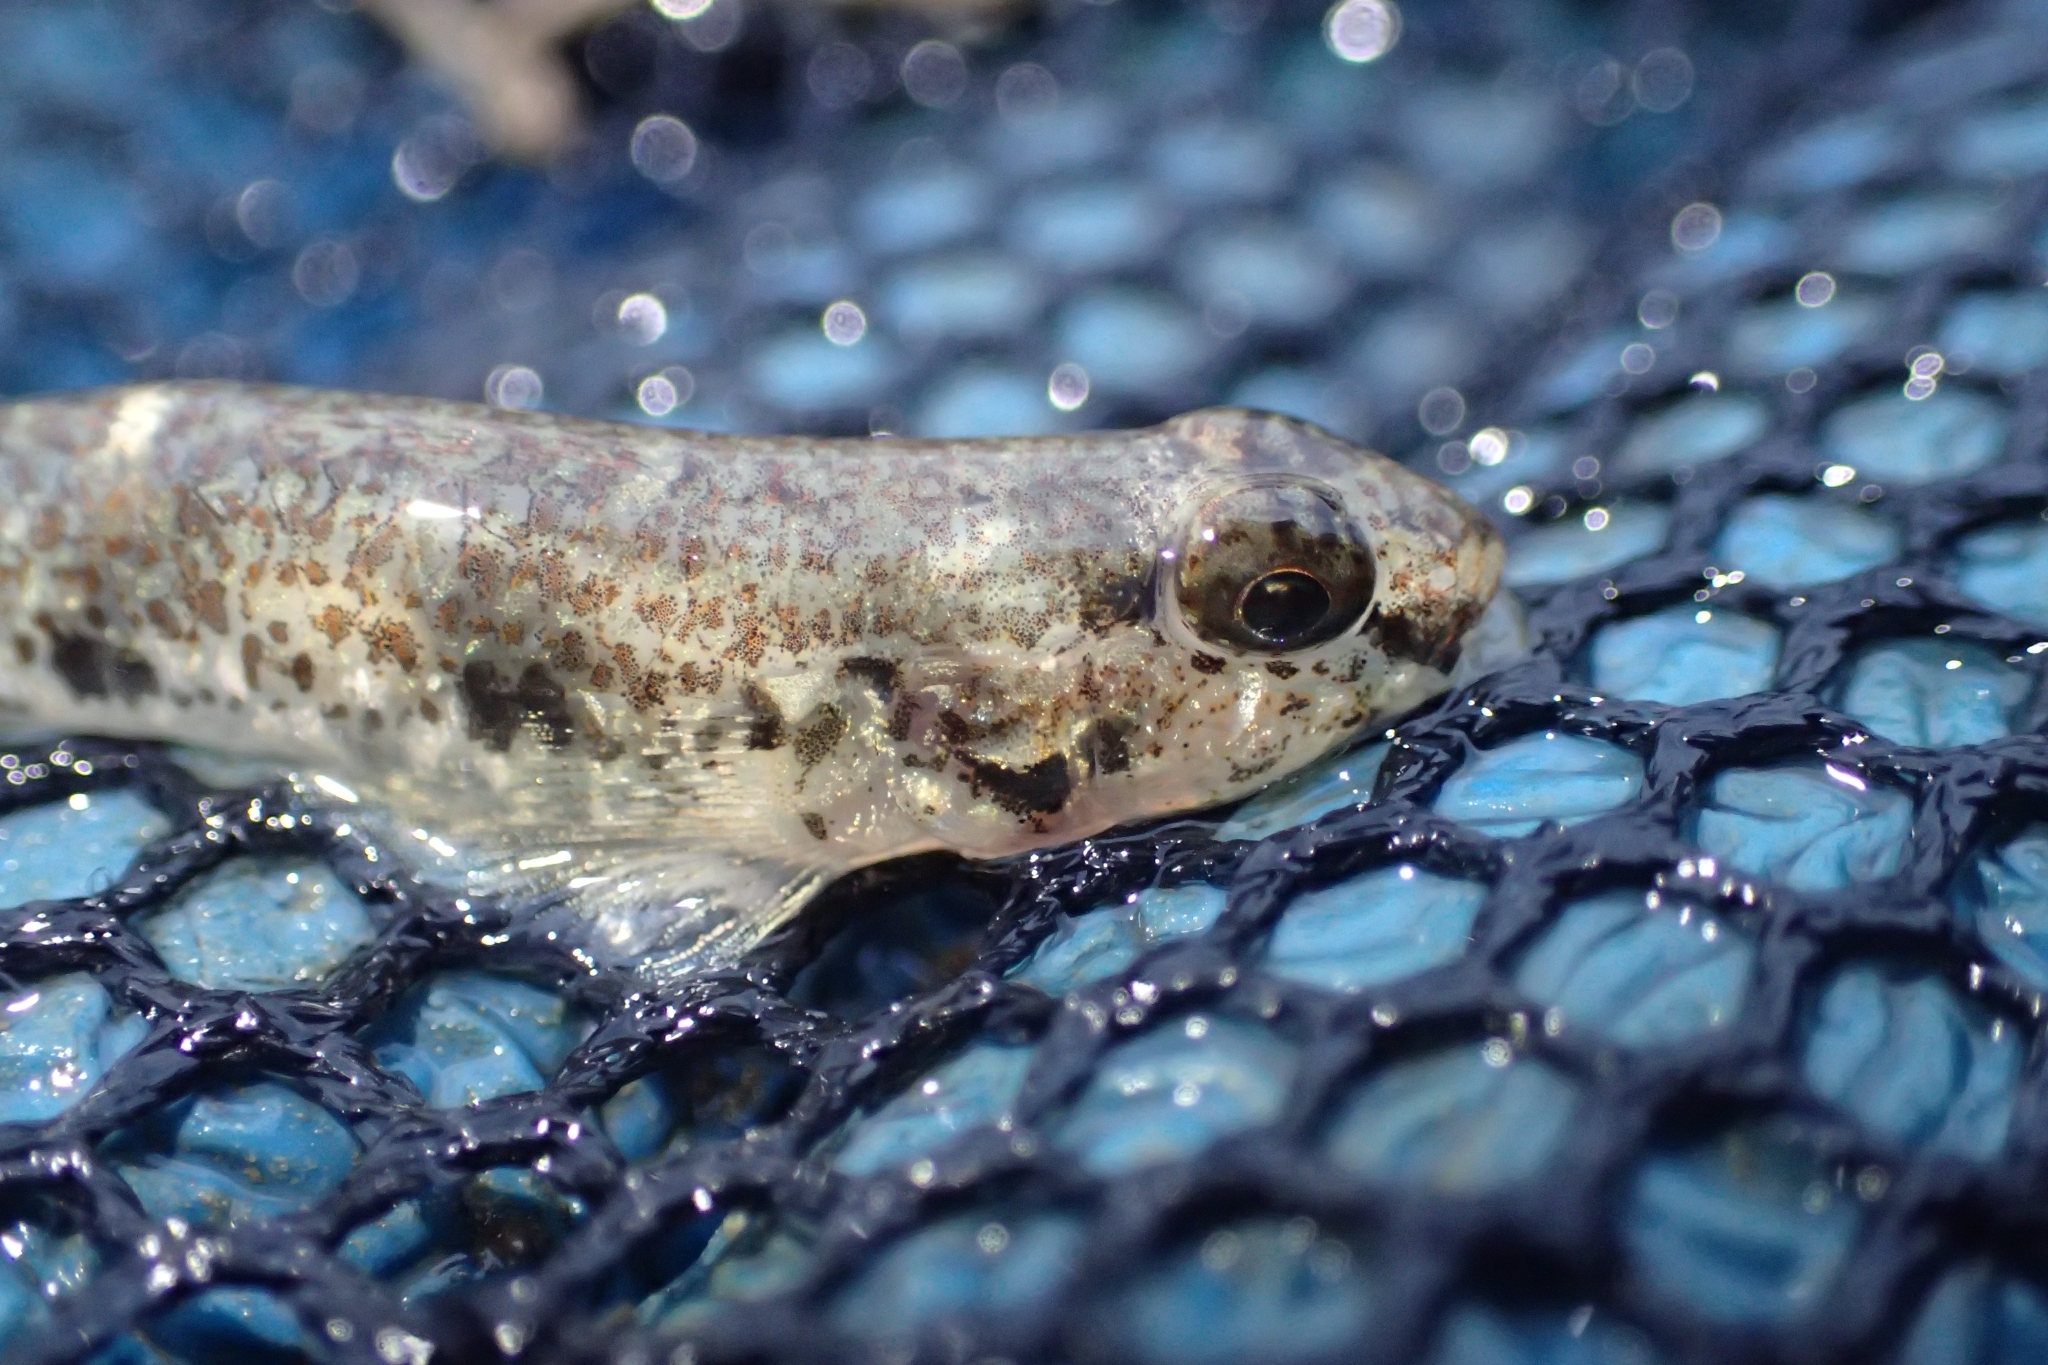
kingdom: Animalia
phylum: Chordata
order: Perciformes
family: Gobiidae
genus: Favonigobius
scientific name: Favonigobius exquisitus
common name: Exquisite sand-goby
